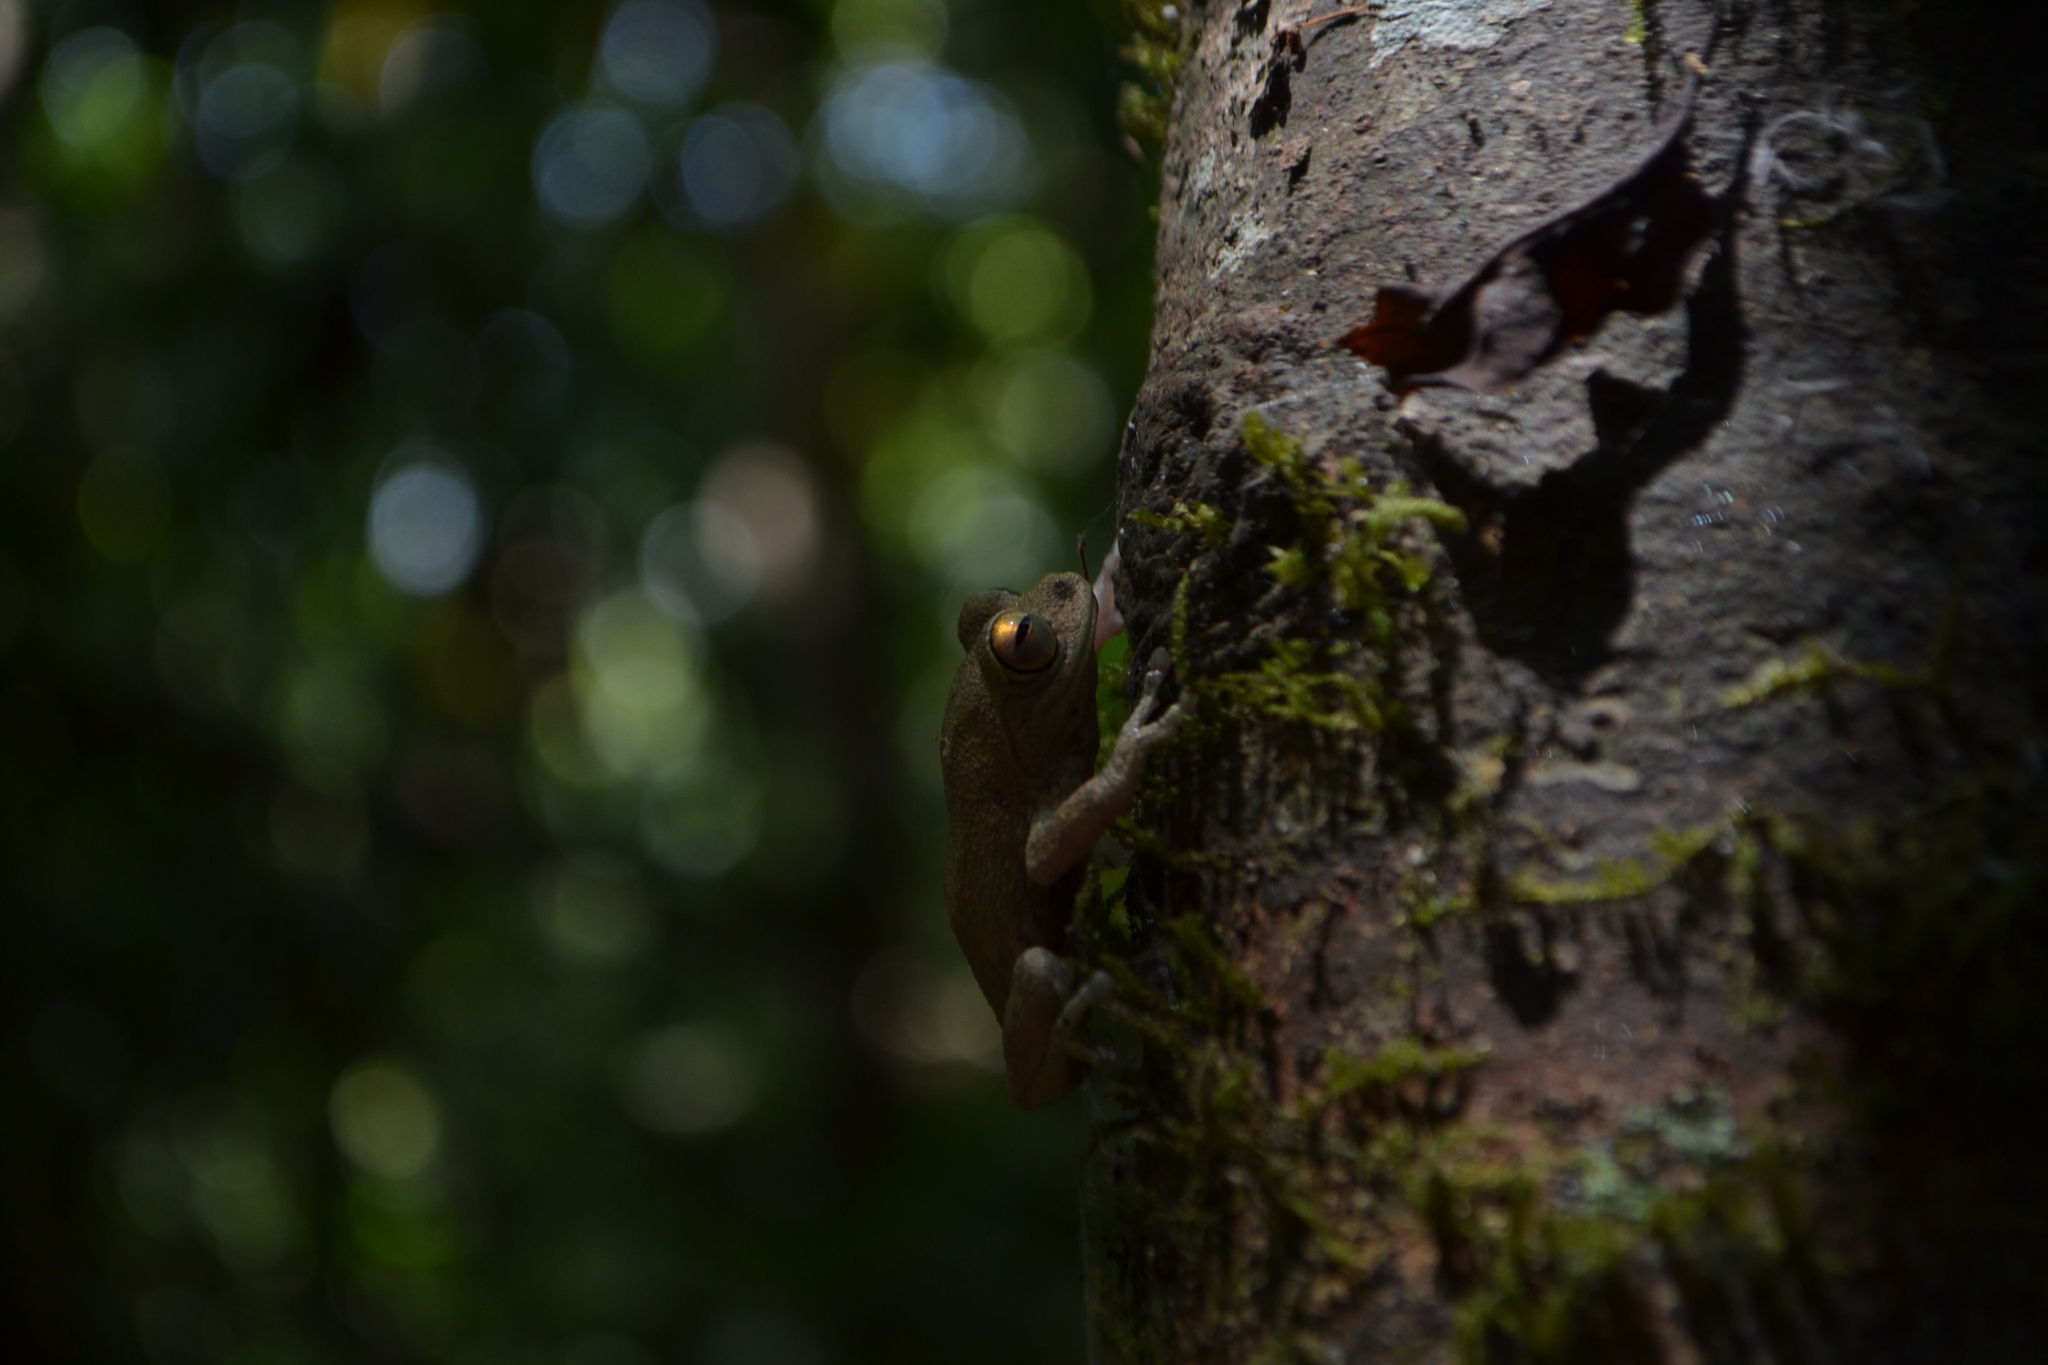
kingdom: Animalia
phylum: Chordata
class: Amphibia
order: Anura
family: Rhacophoridae
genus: Raorchestes
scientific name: Raorchestes ponmudi
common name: Large ponmudi bush frog
